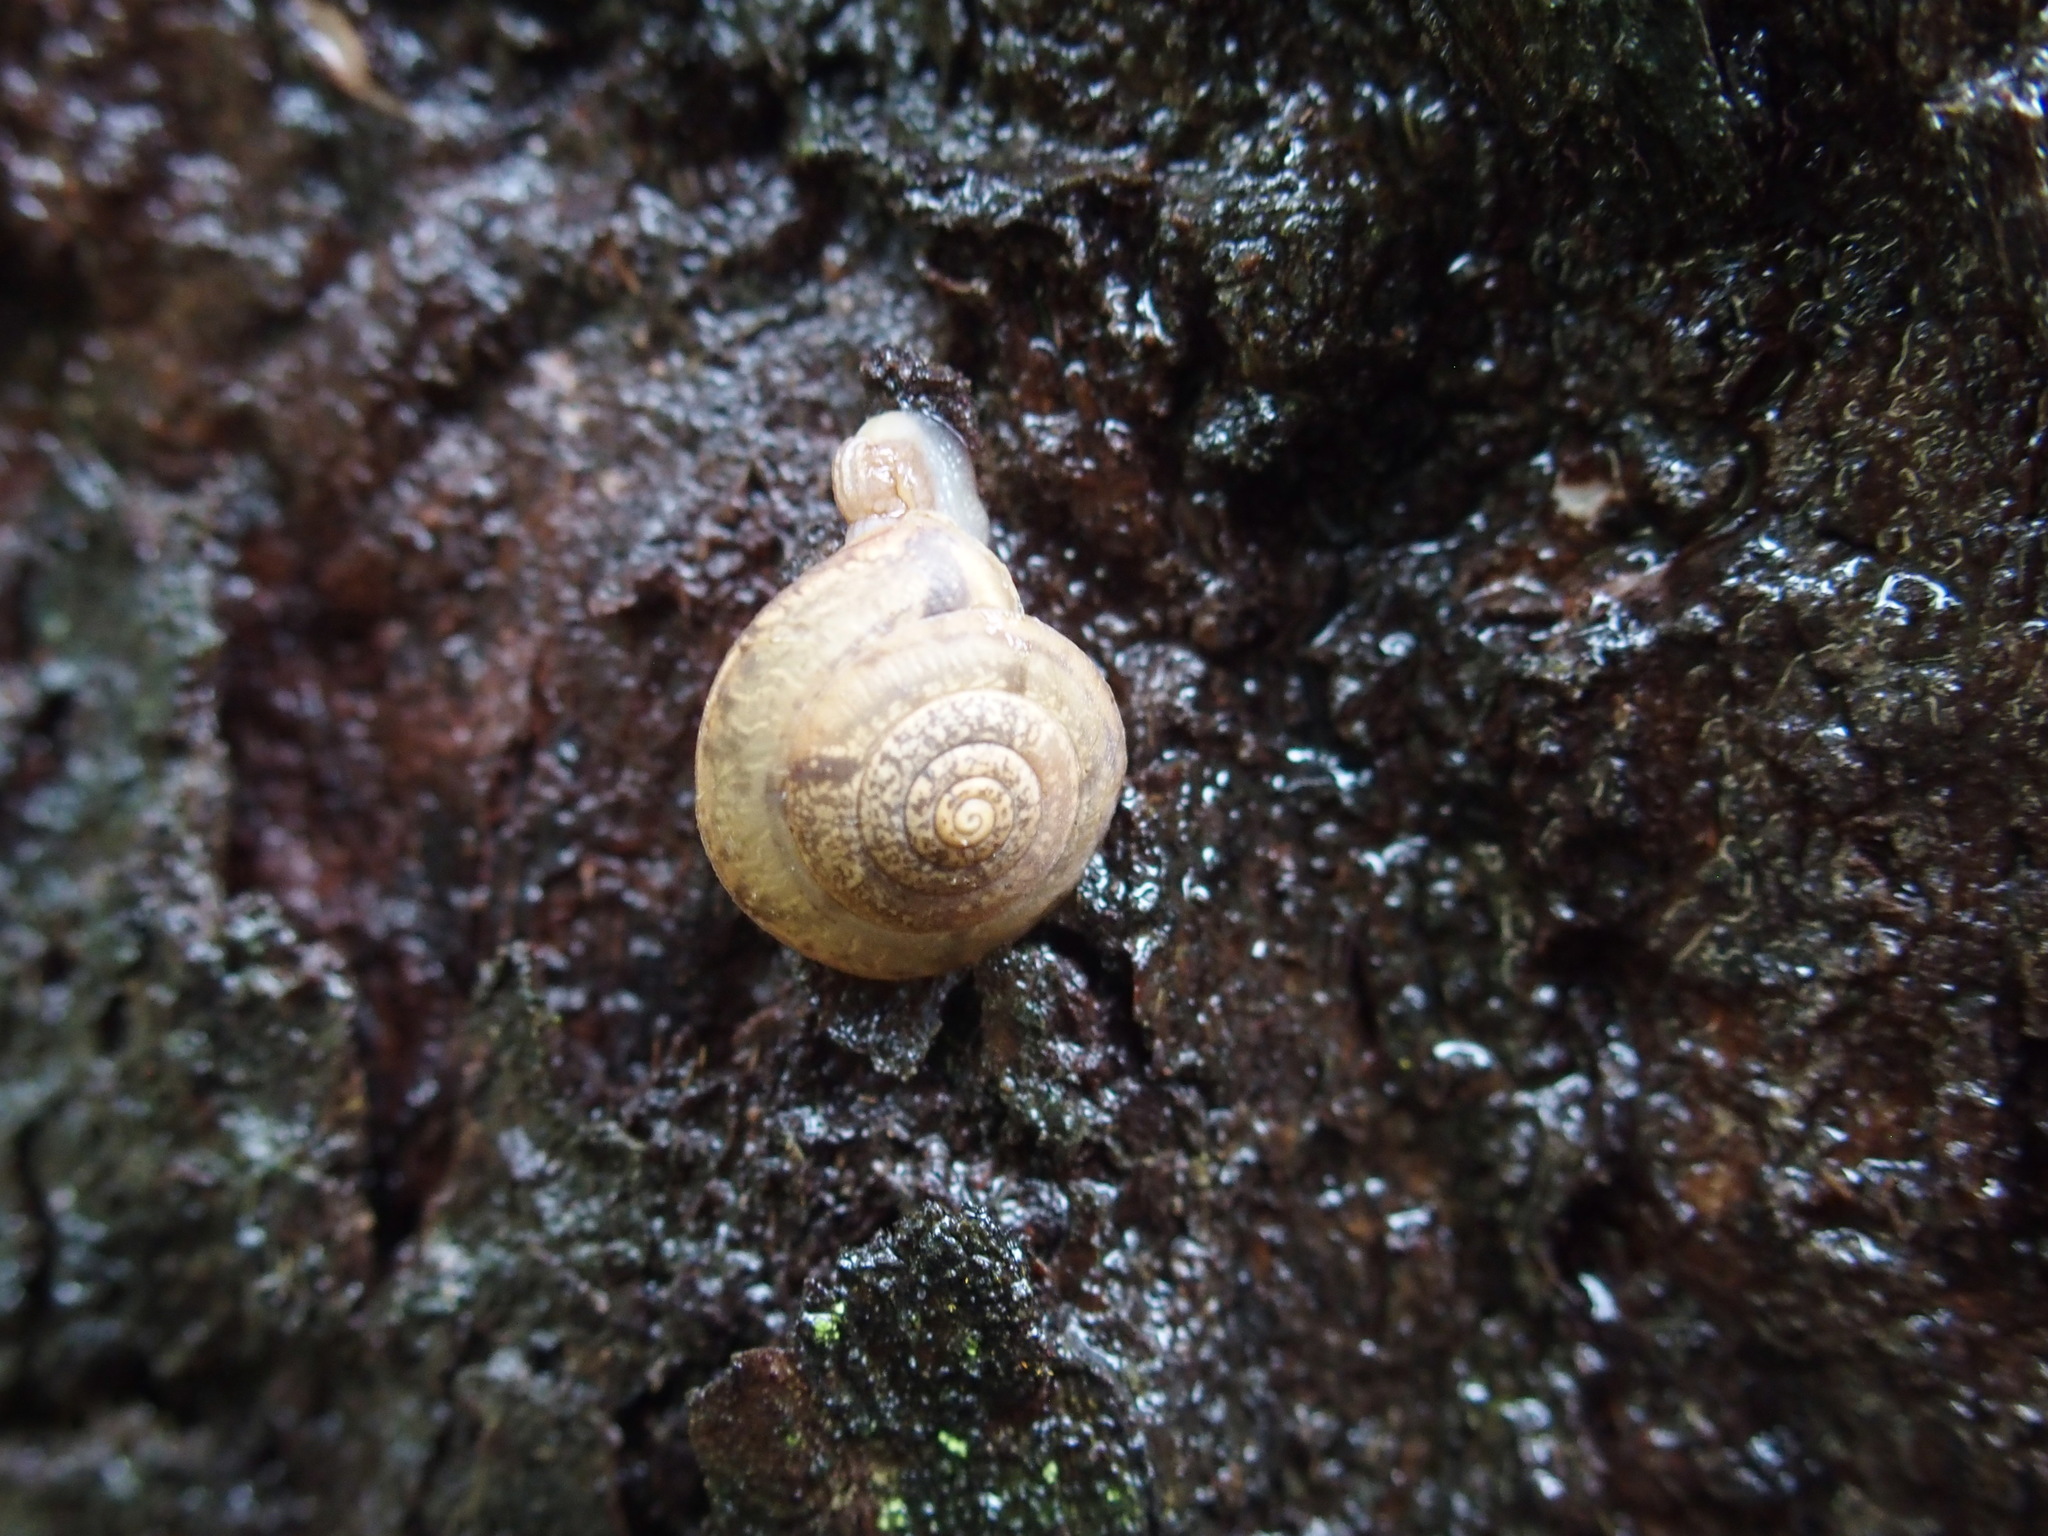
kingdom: Animalia
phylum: Mollusca
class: Gastropoda
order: Stylommatophora
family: Camaenidae
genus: Aegista
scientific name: Aegista lautsi
